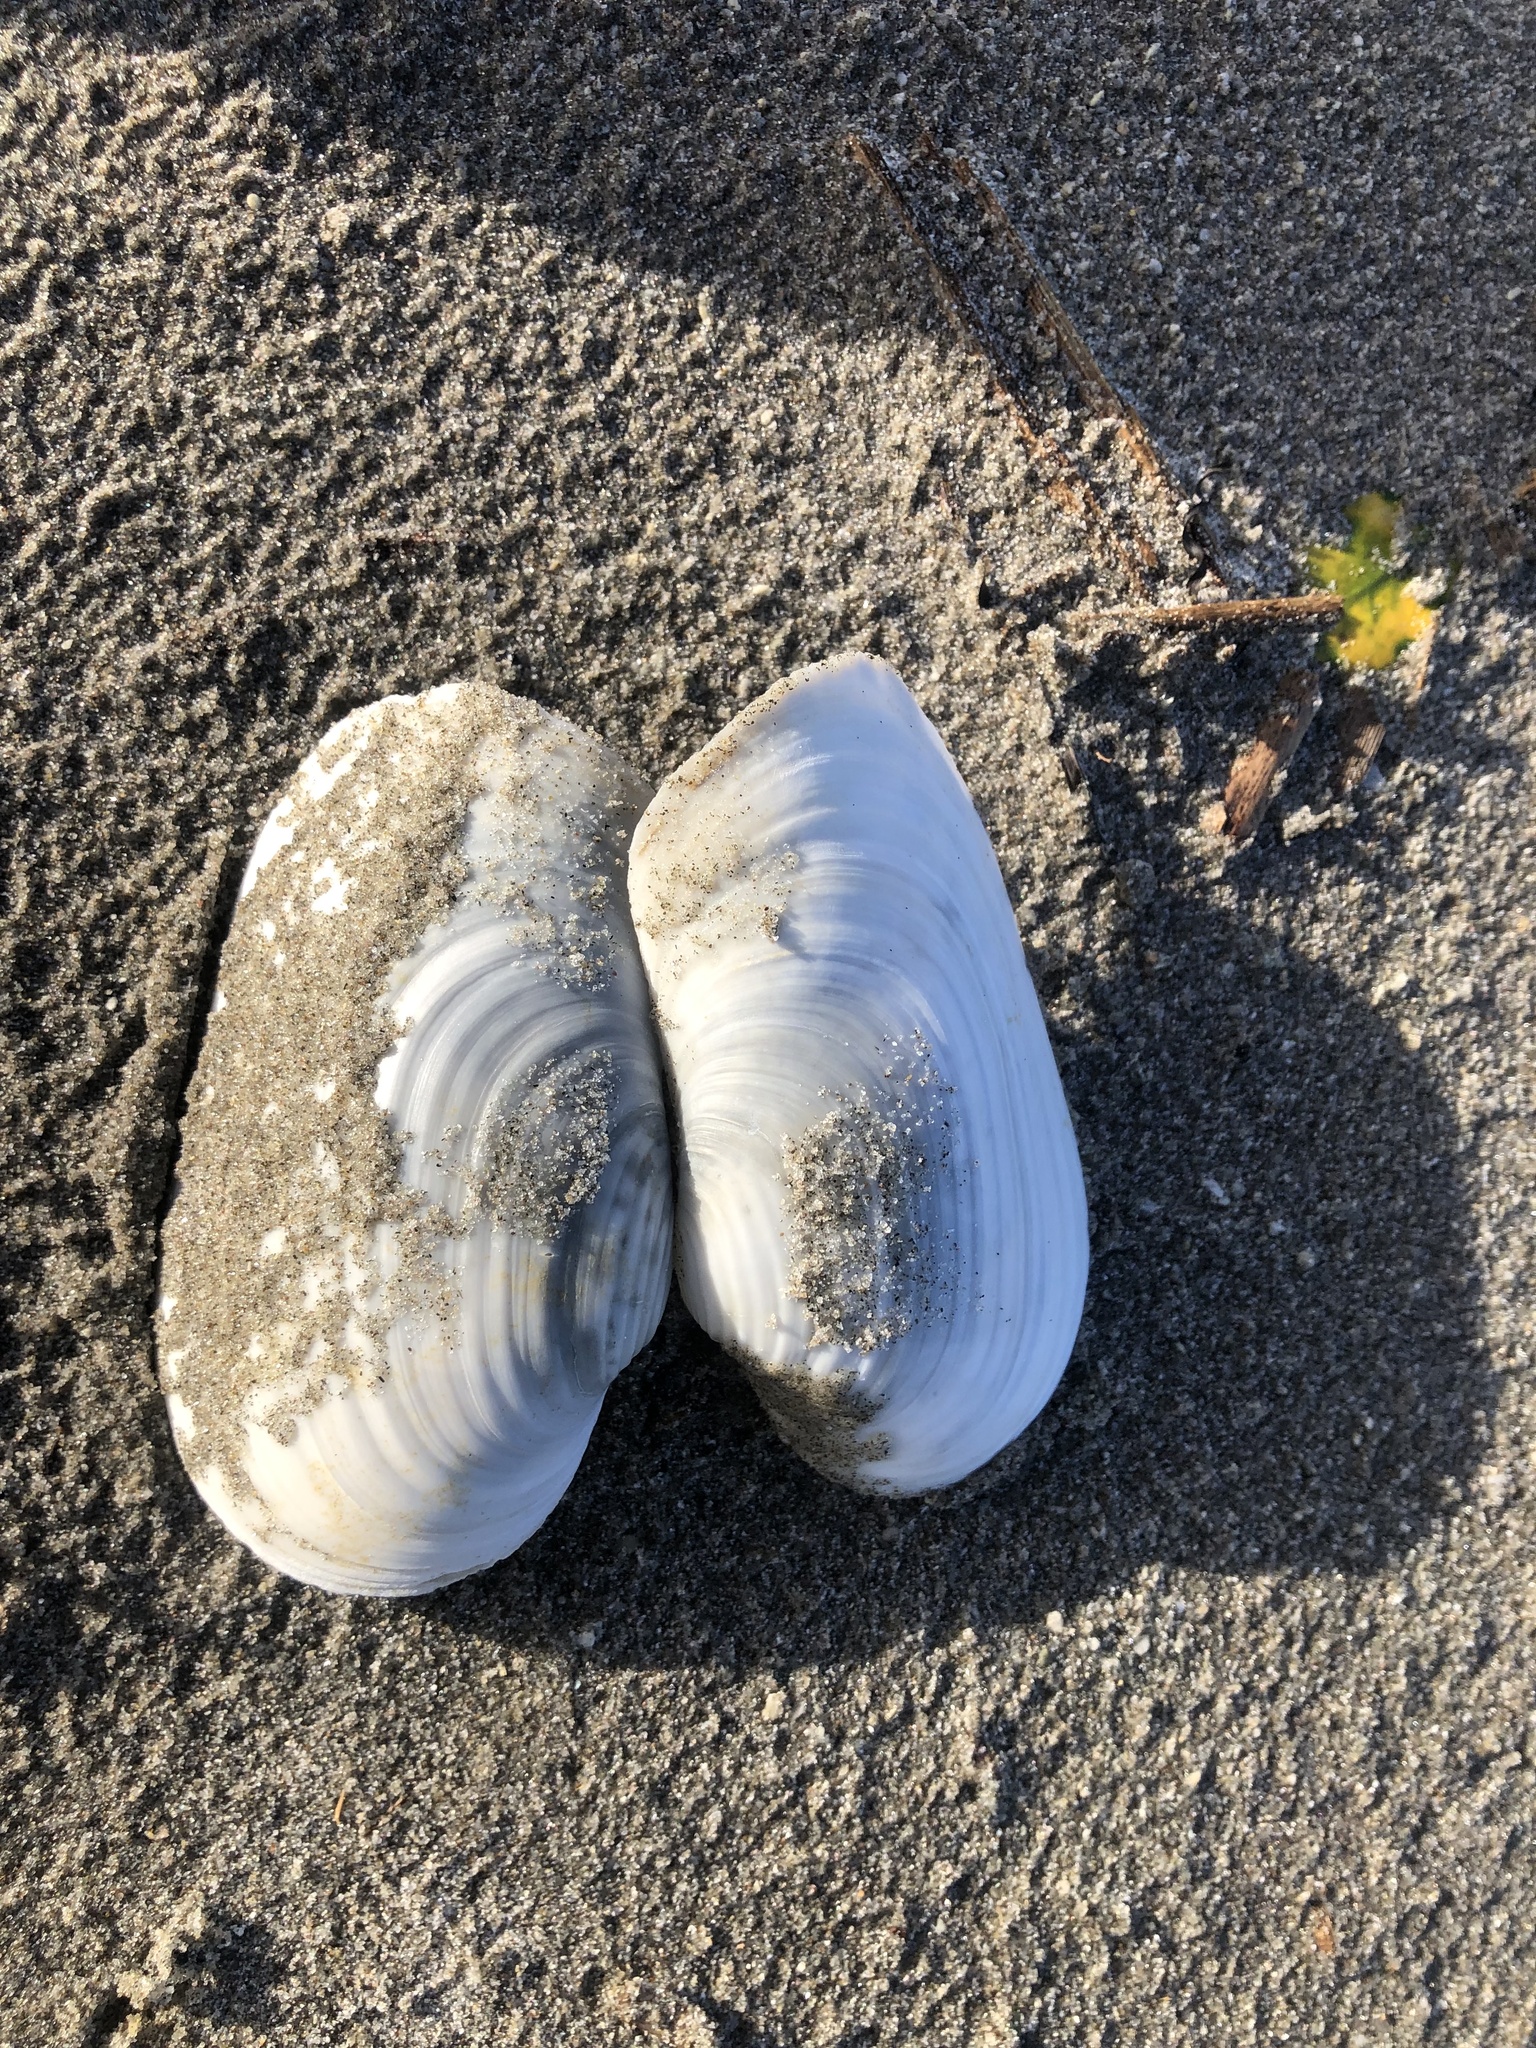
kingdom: Animalia
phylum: Mollusca
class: Bivalvia
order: Adapedonta
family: Hiatellidae
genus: Panopea
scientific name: Panopea zelandica
